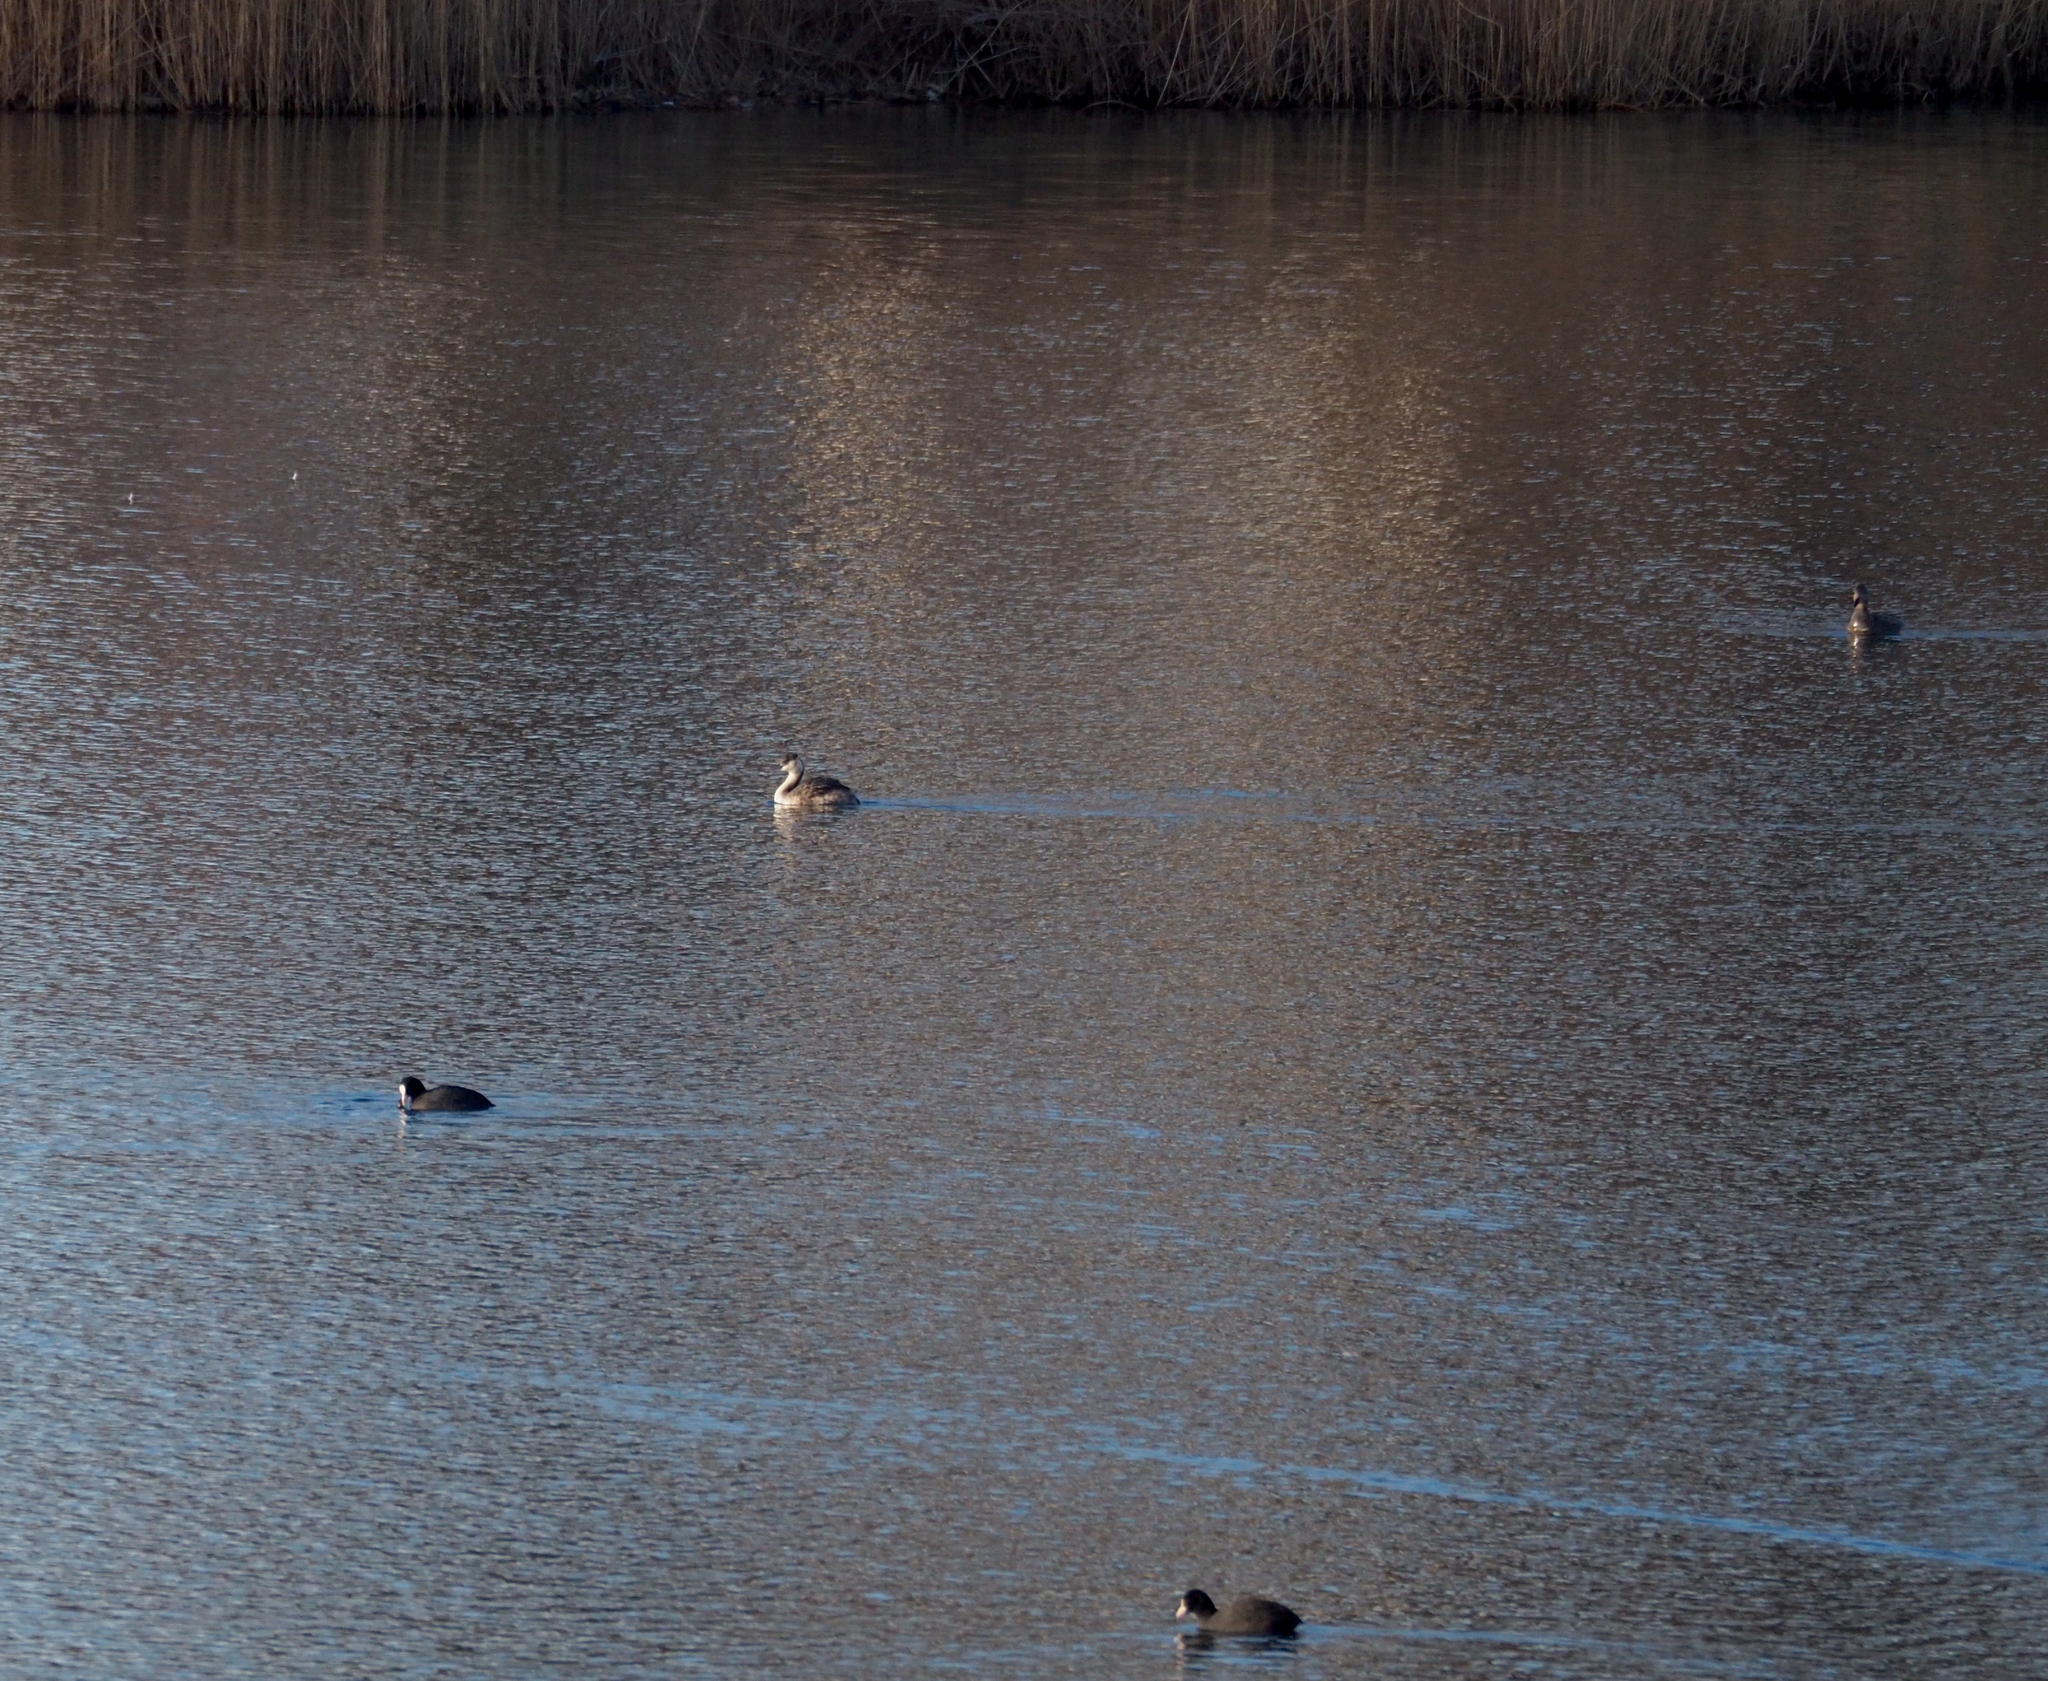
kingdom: Animalia
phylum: Chordata
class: Aves
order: Podicipediformes
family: Podicipedidae
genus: Podiceps
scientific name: Podiceps cristatus
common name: Great crested grebe
